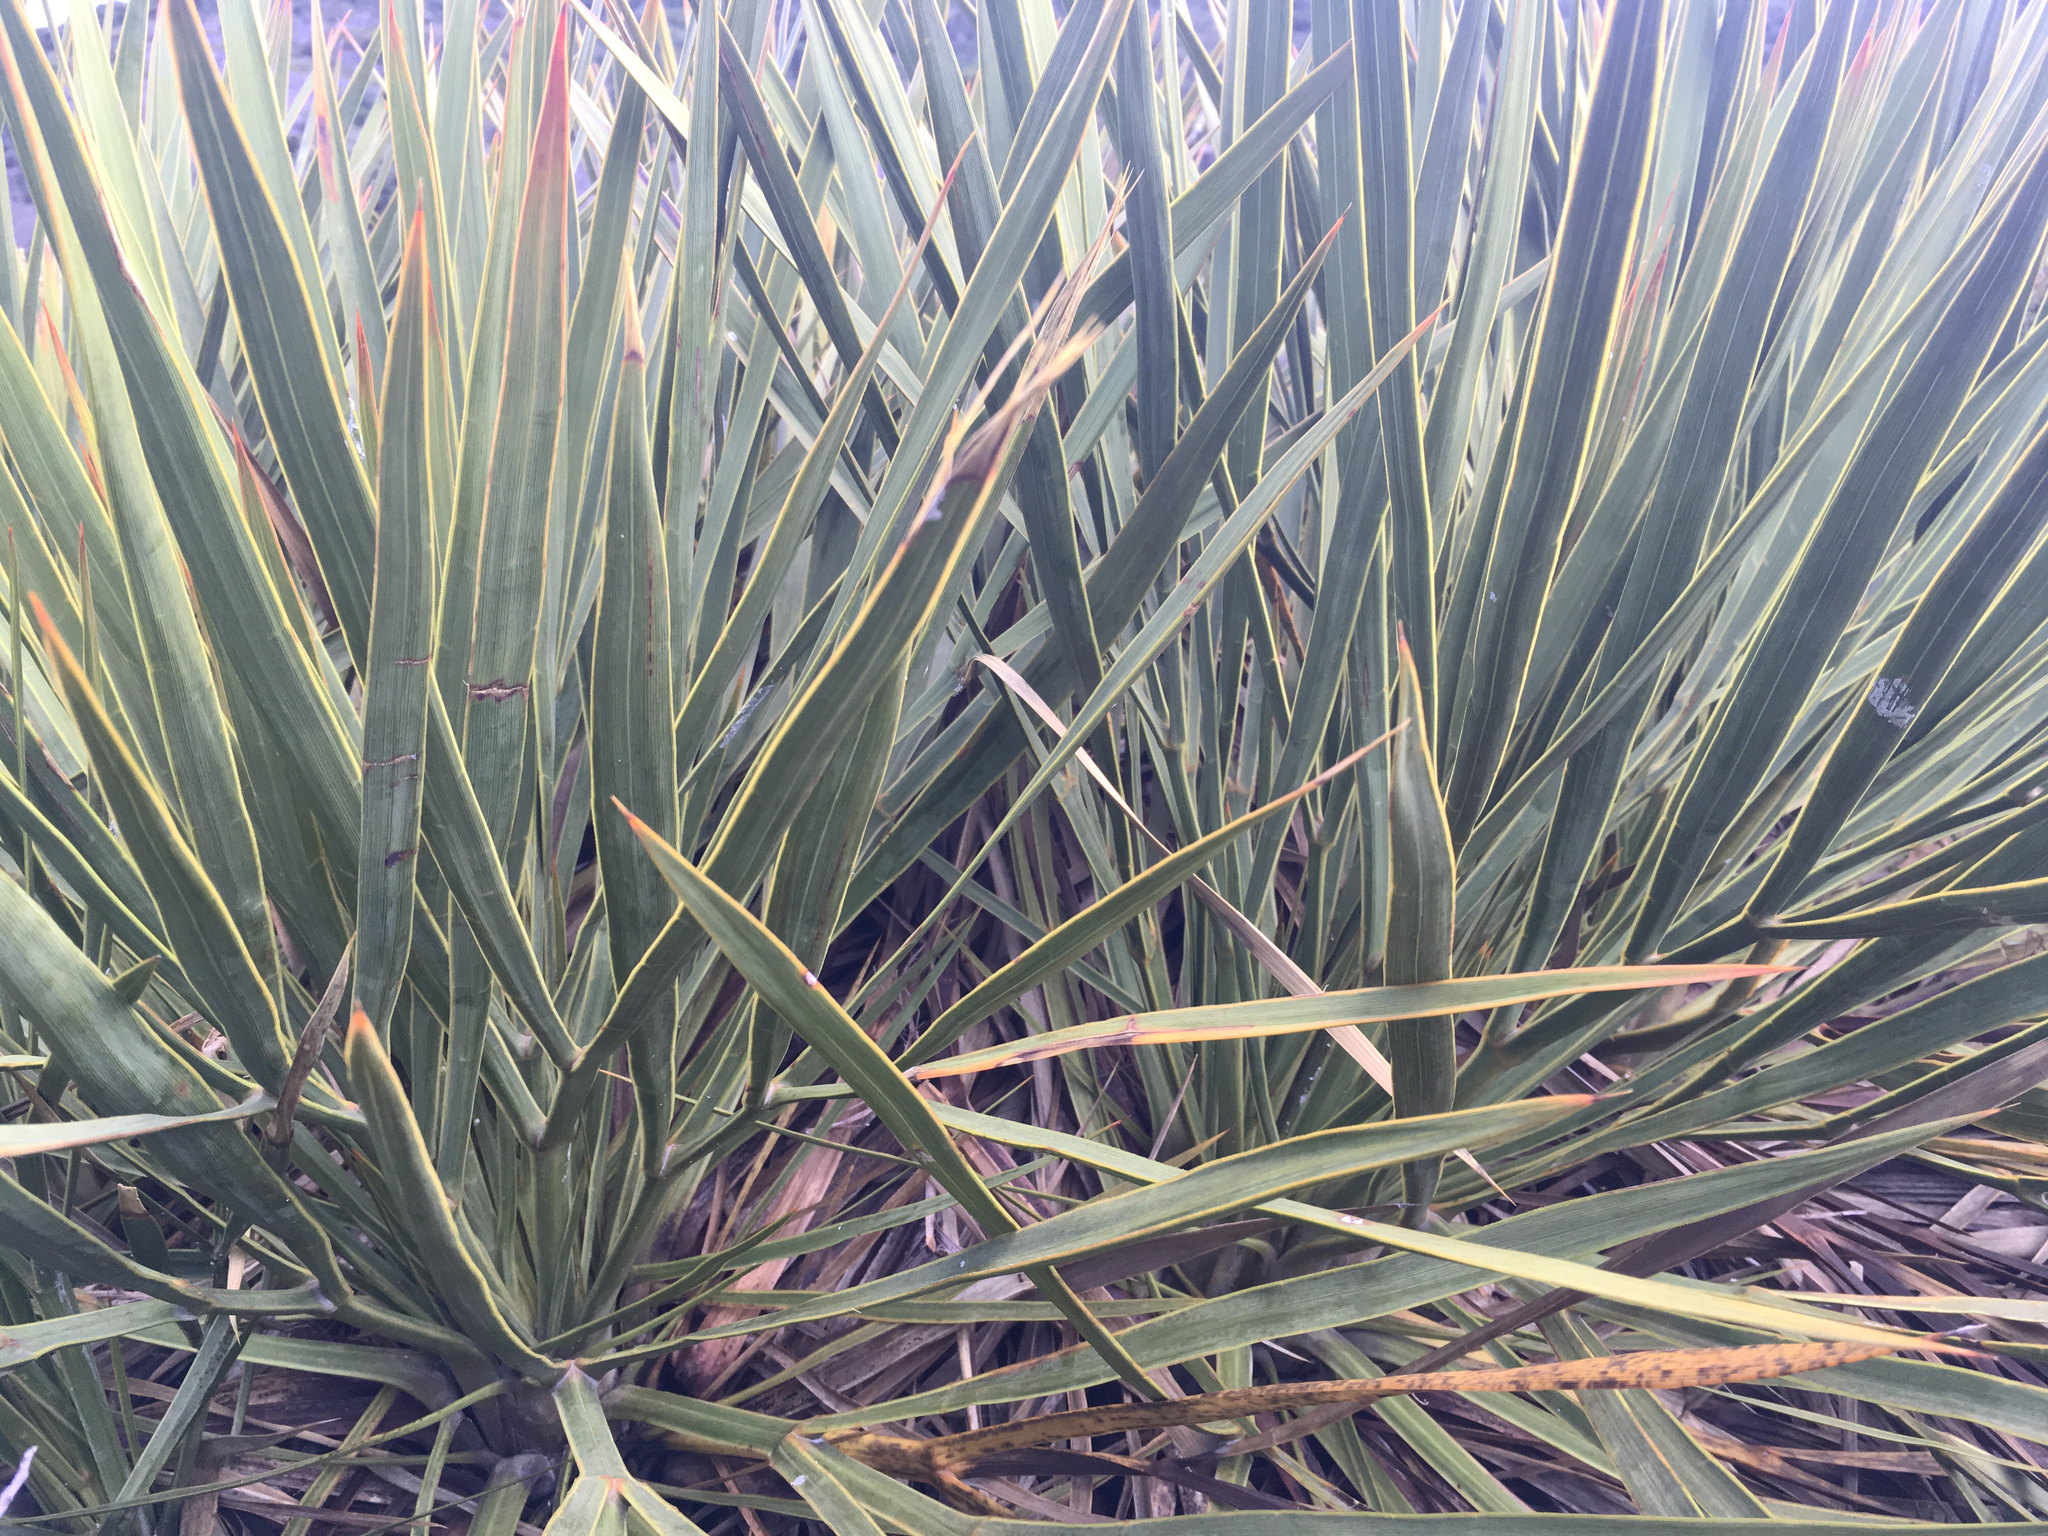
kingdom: Plantae
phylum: Tracheophyta
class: Magnoliopsida
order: Apiales
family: Apiaceae
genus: Aciphylla
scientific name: Aciphylla aurea
